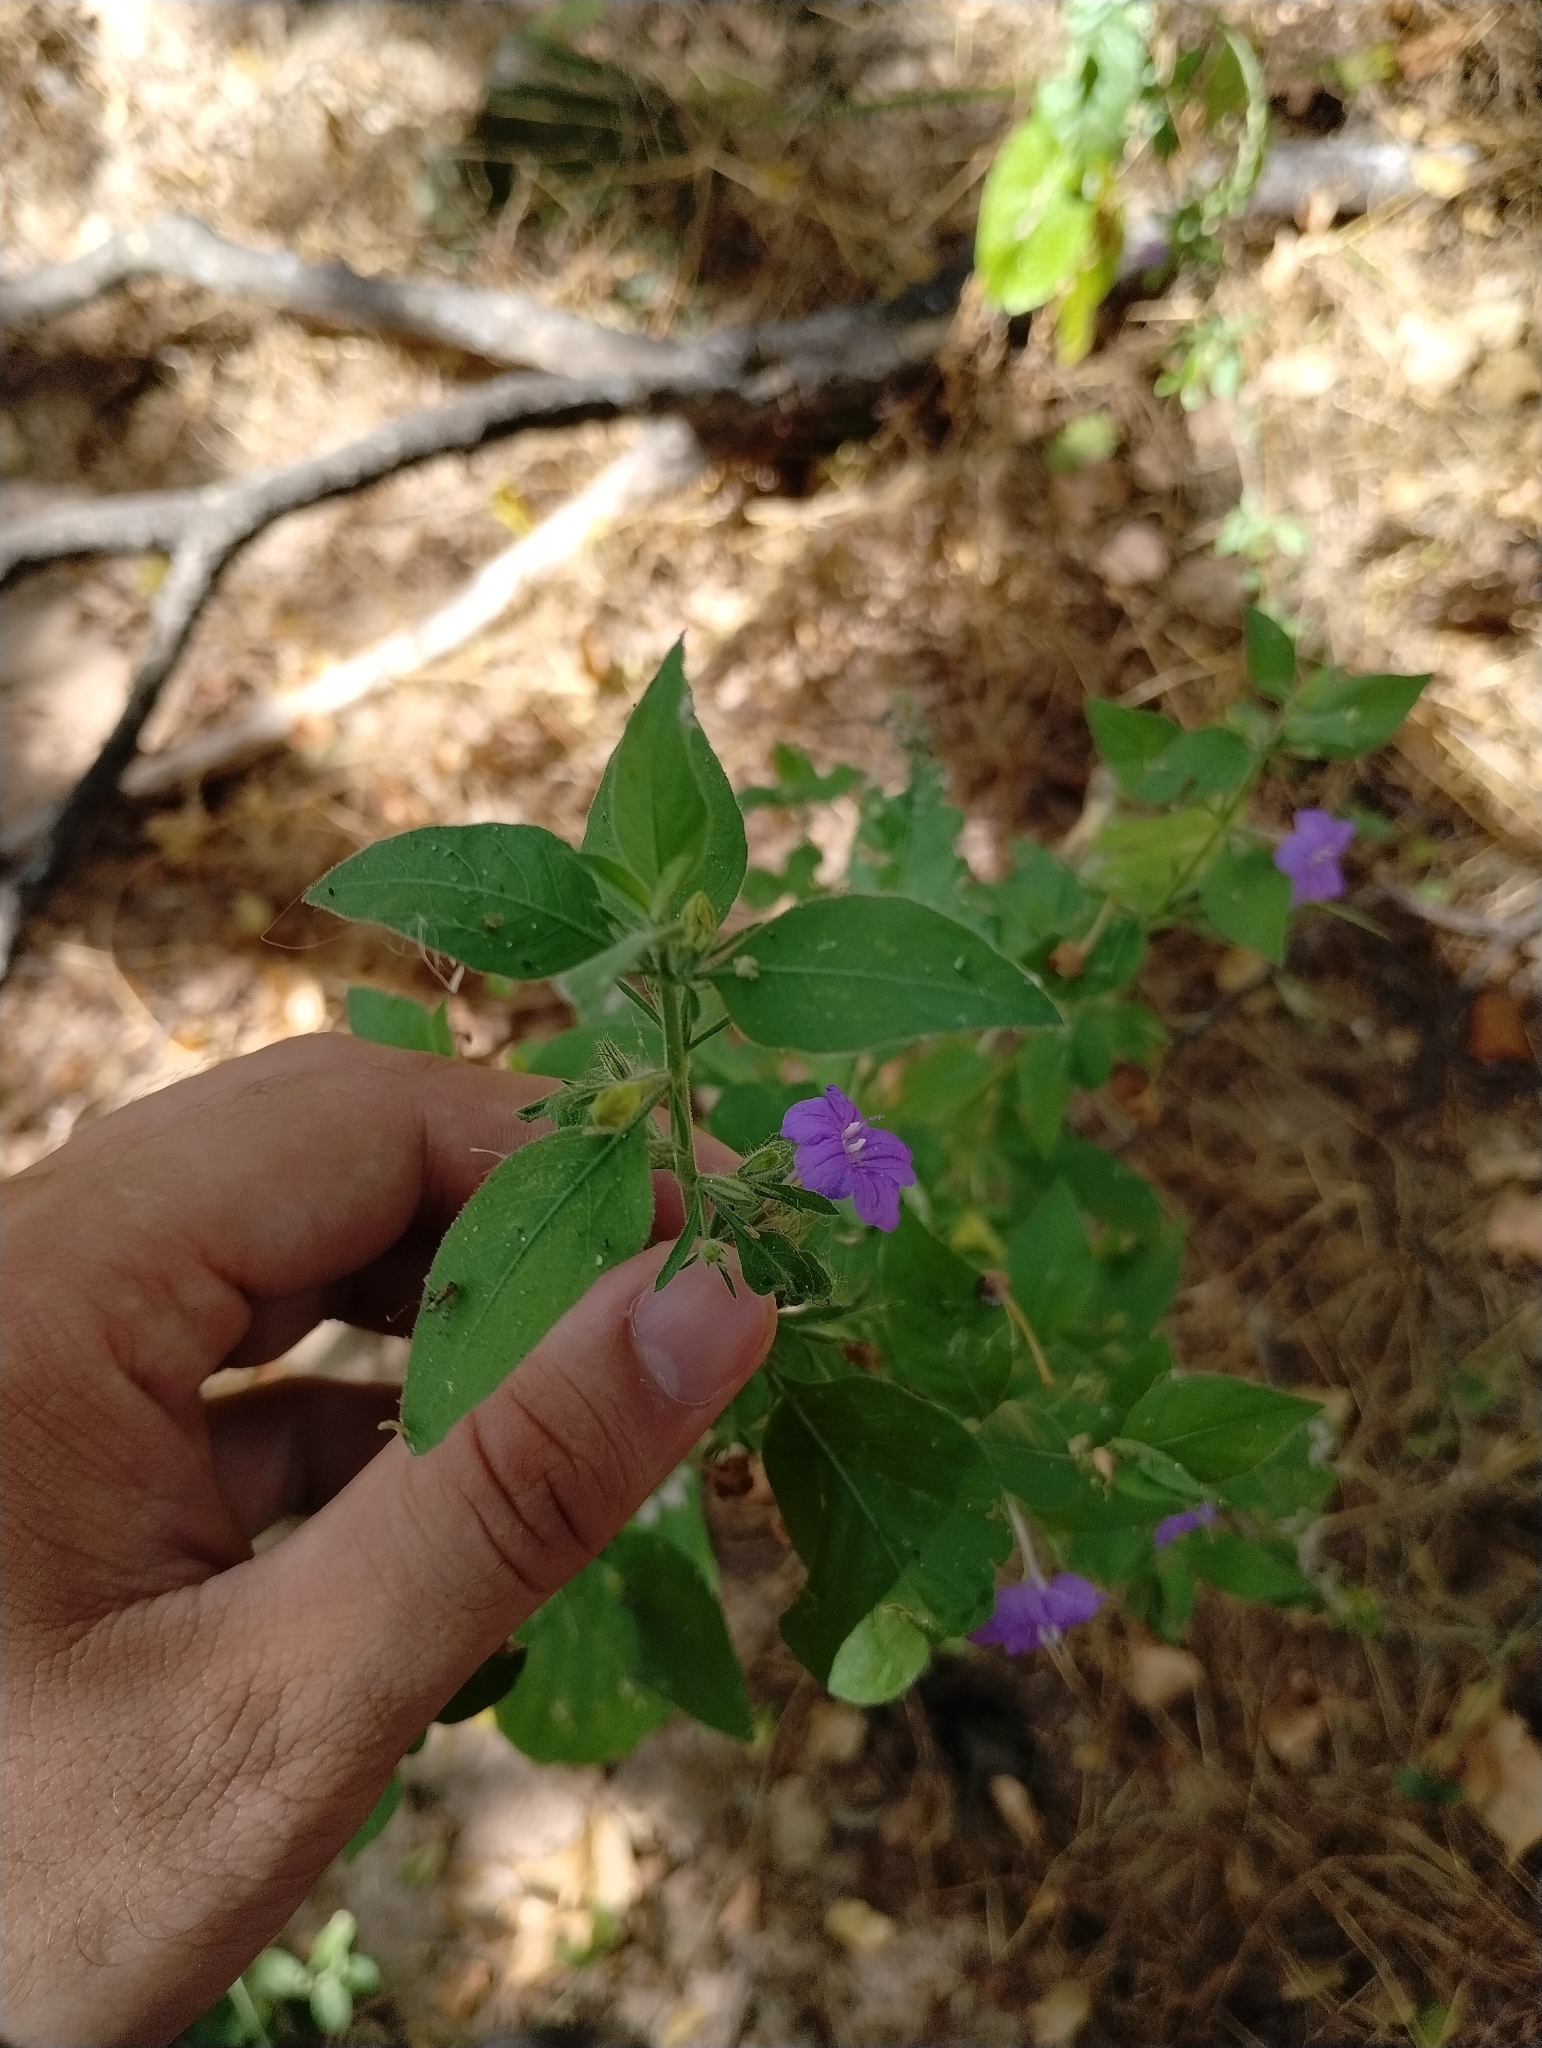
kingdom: Plantae
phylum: Tracheophyta
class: Magnoliopsida
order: Lamiales
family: Acanthaceae
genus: Ruellia
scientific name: Ruellia paniculata
